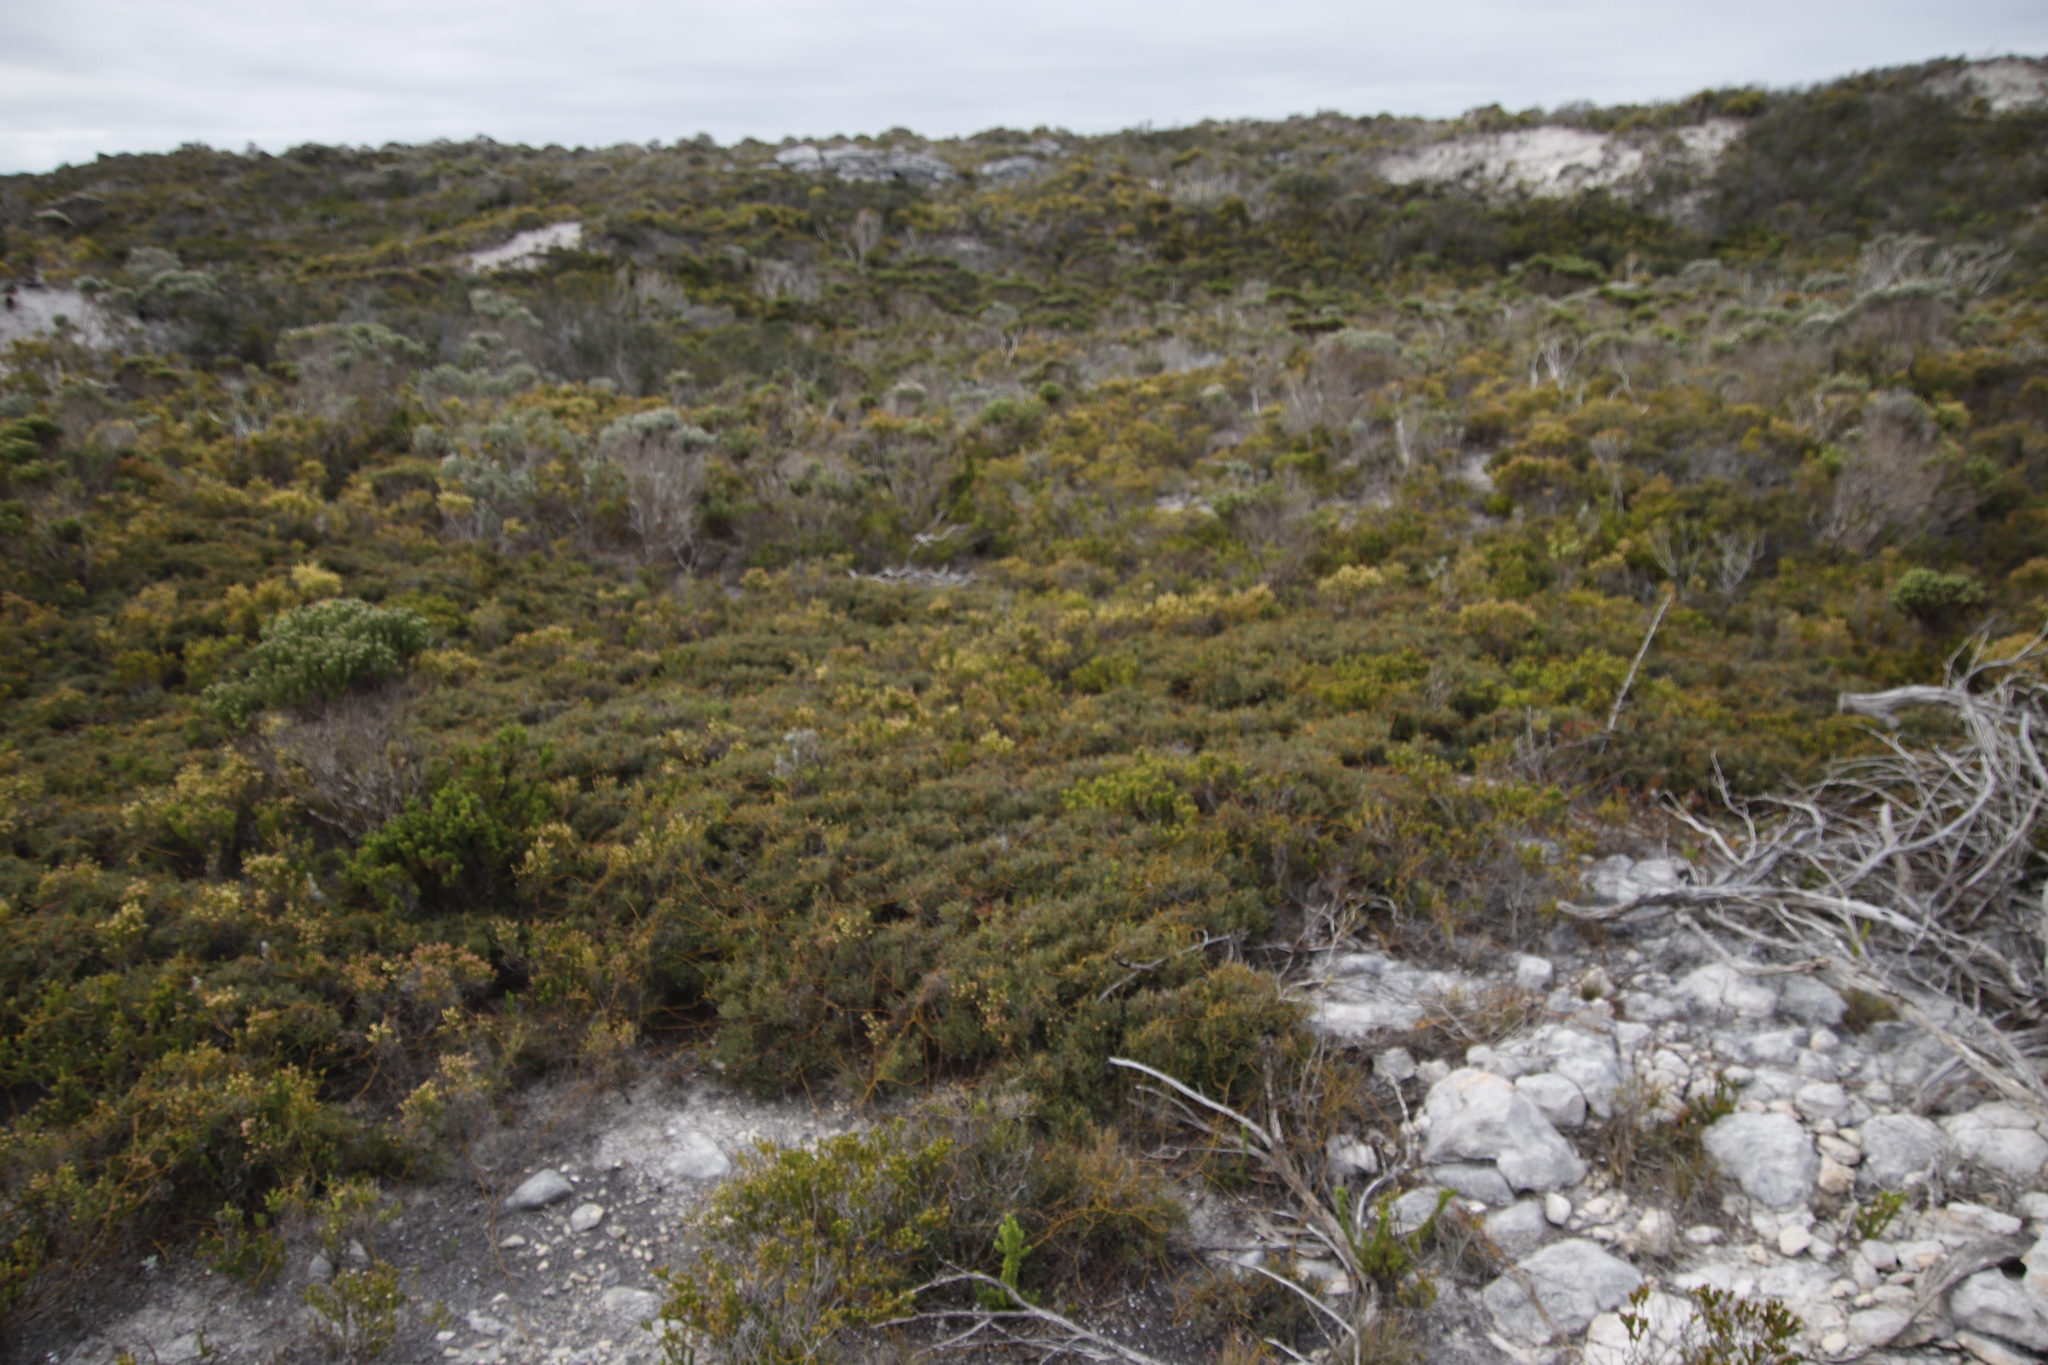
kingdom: Plantae
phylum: Tracheophyta
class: Magnoliopsida
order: Fagales
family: Myricaceae
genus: Morella
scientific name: Morella quercifolia
